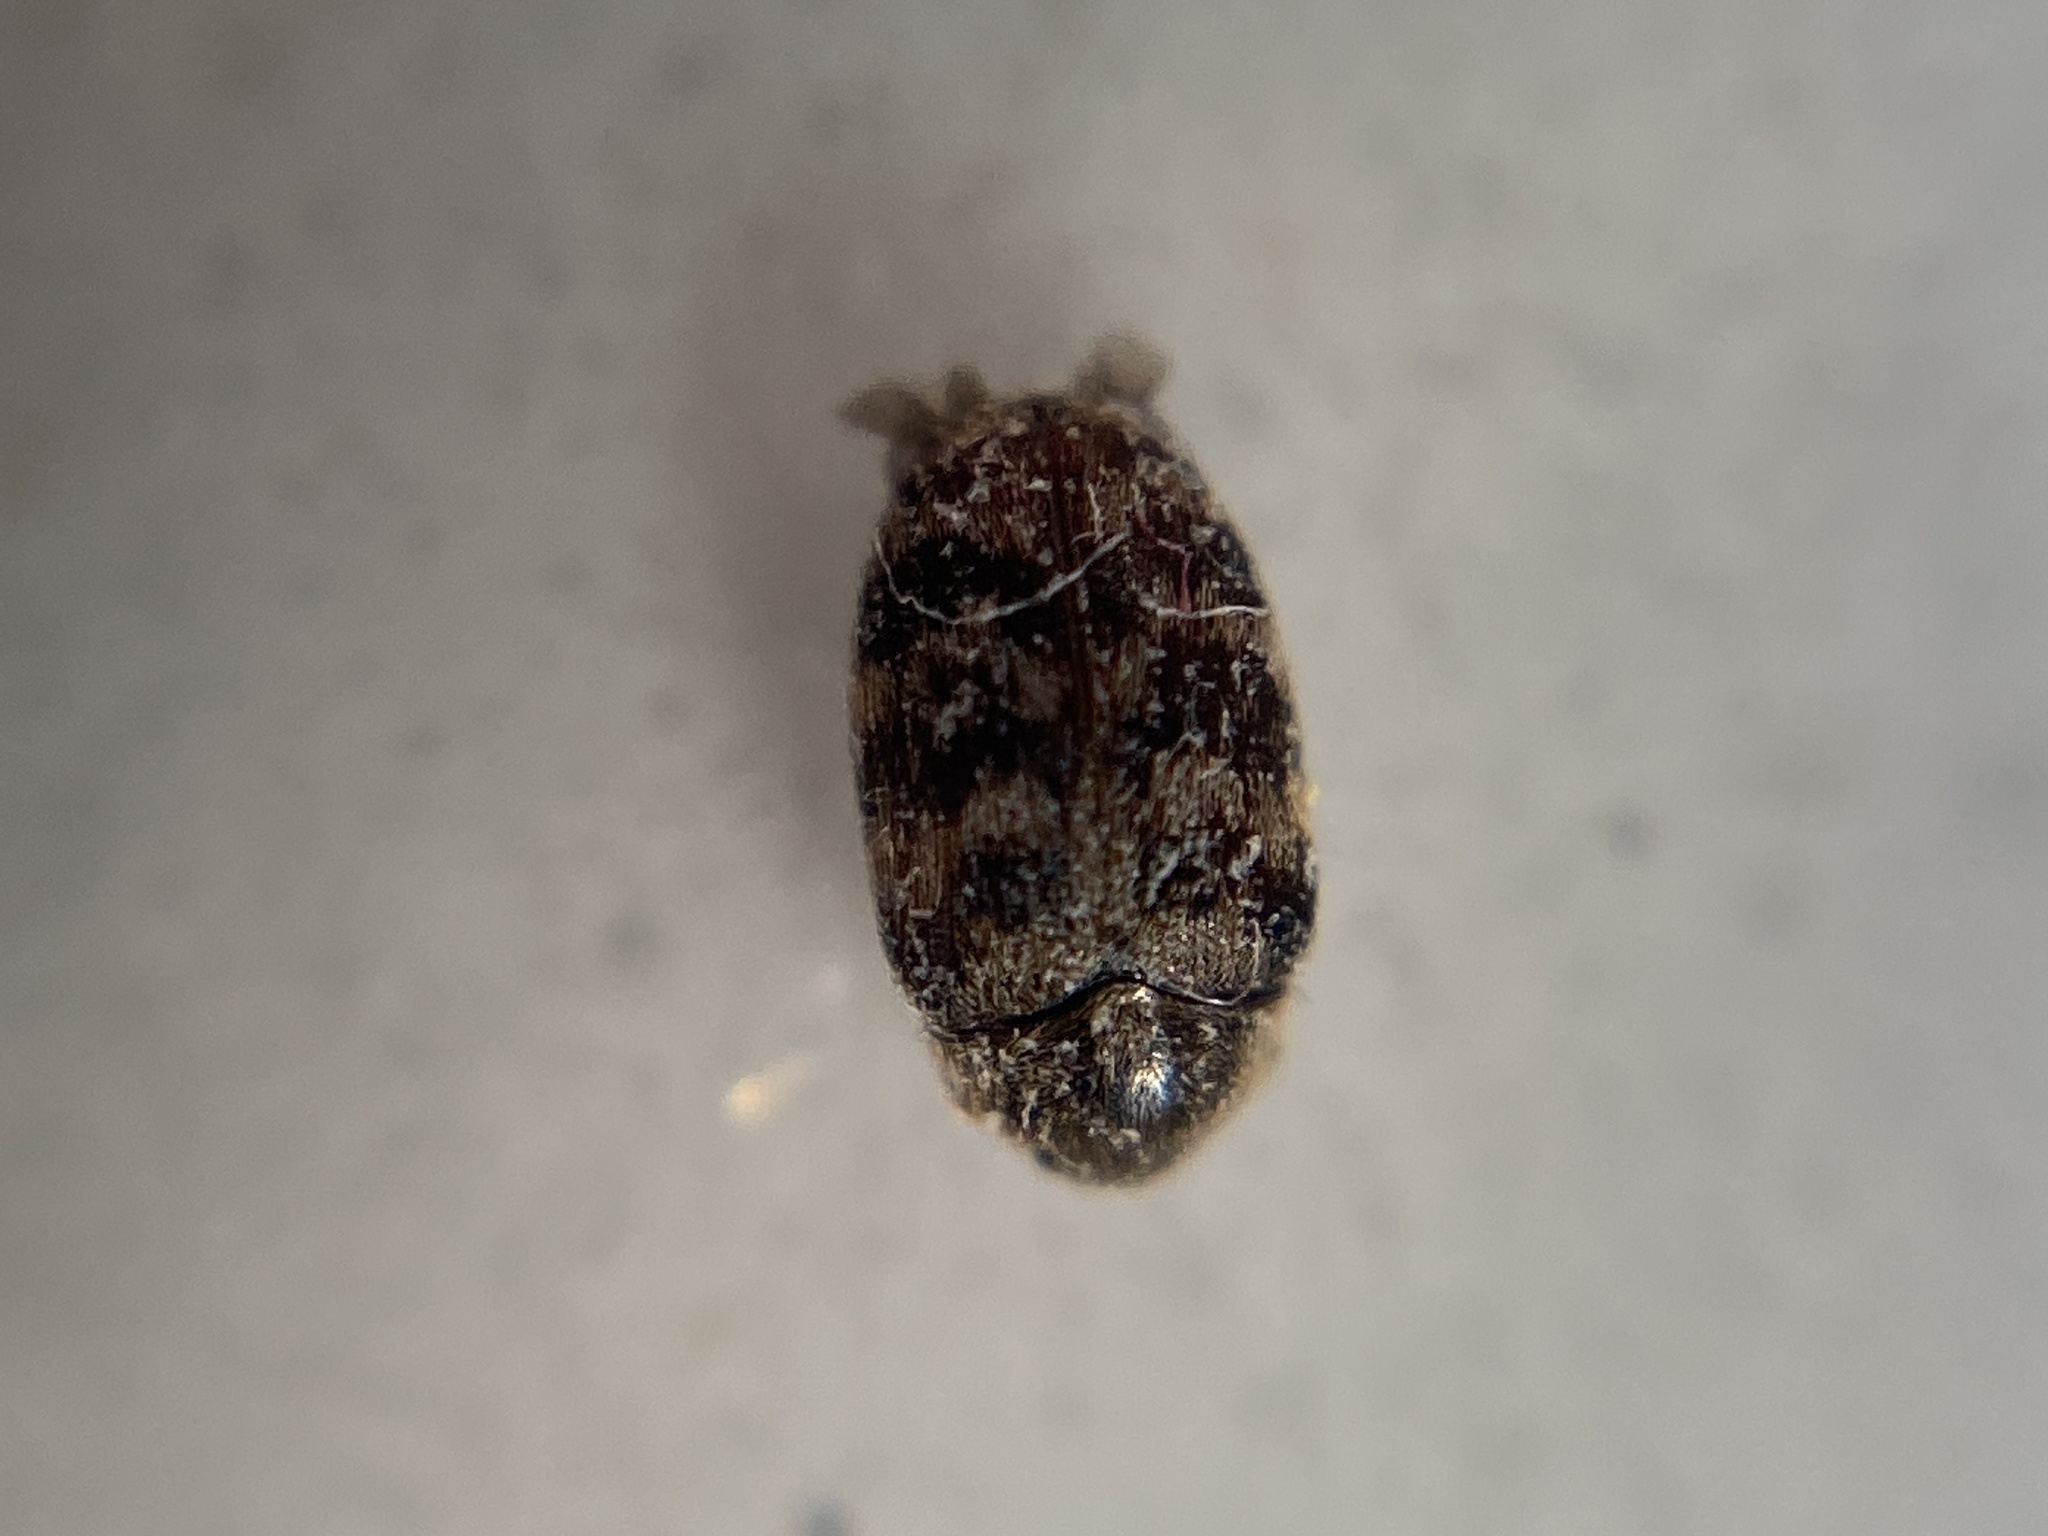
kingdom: Animalia
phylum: Arthropoda
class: Insecta
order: Coleoptera
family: Dermestidae
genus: Anthrenocerus
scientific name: Anthrenocerus australis
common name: Australian carpet beetle
